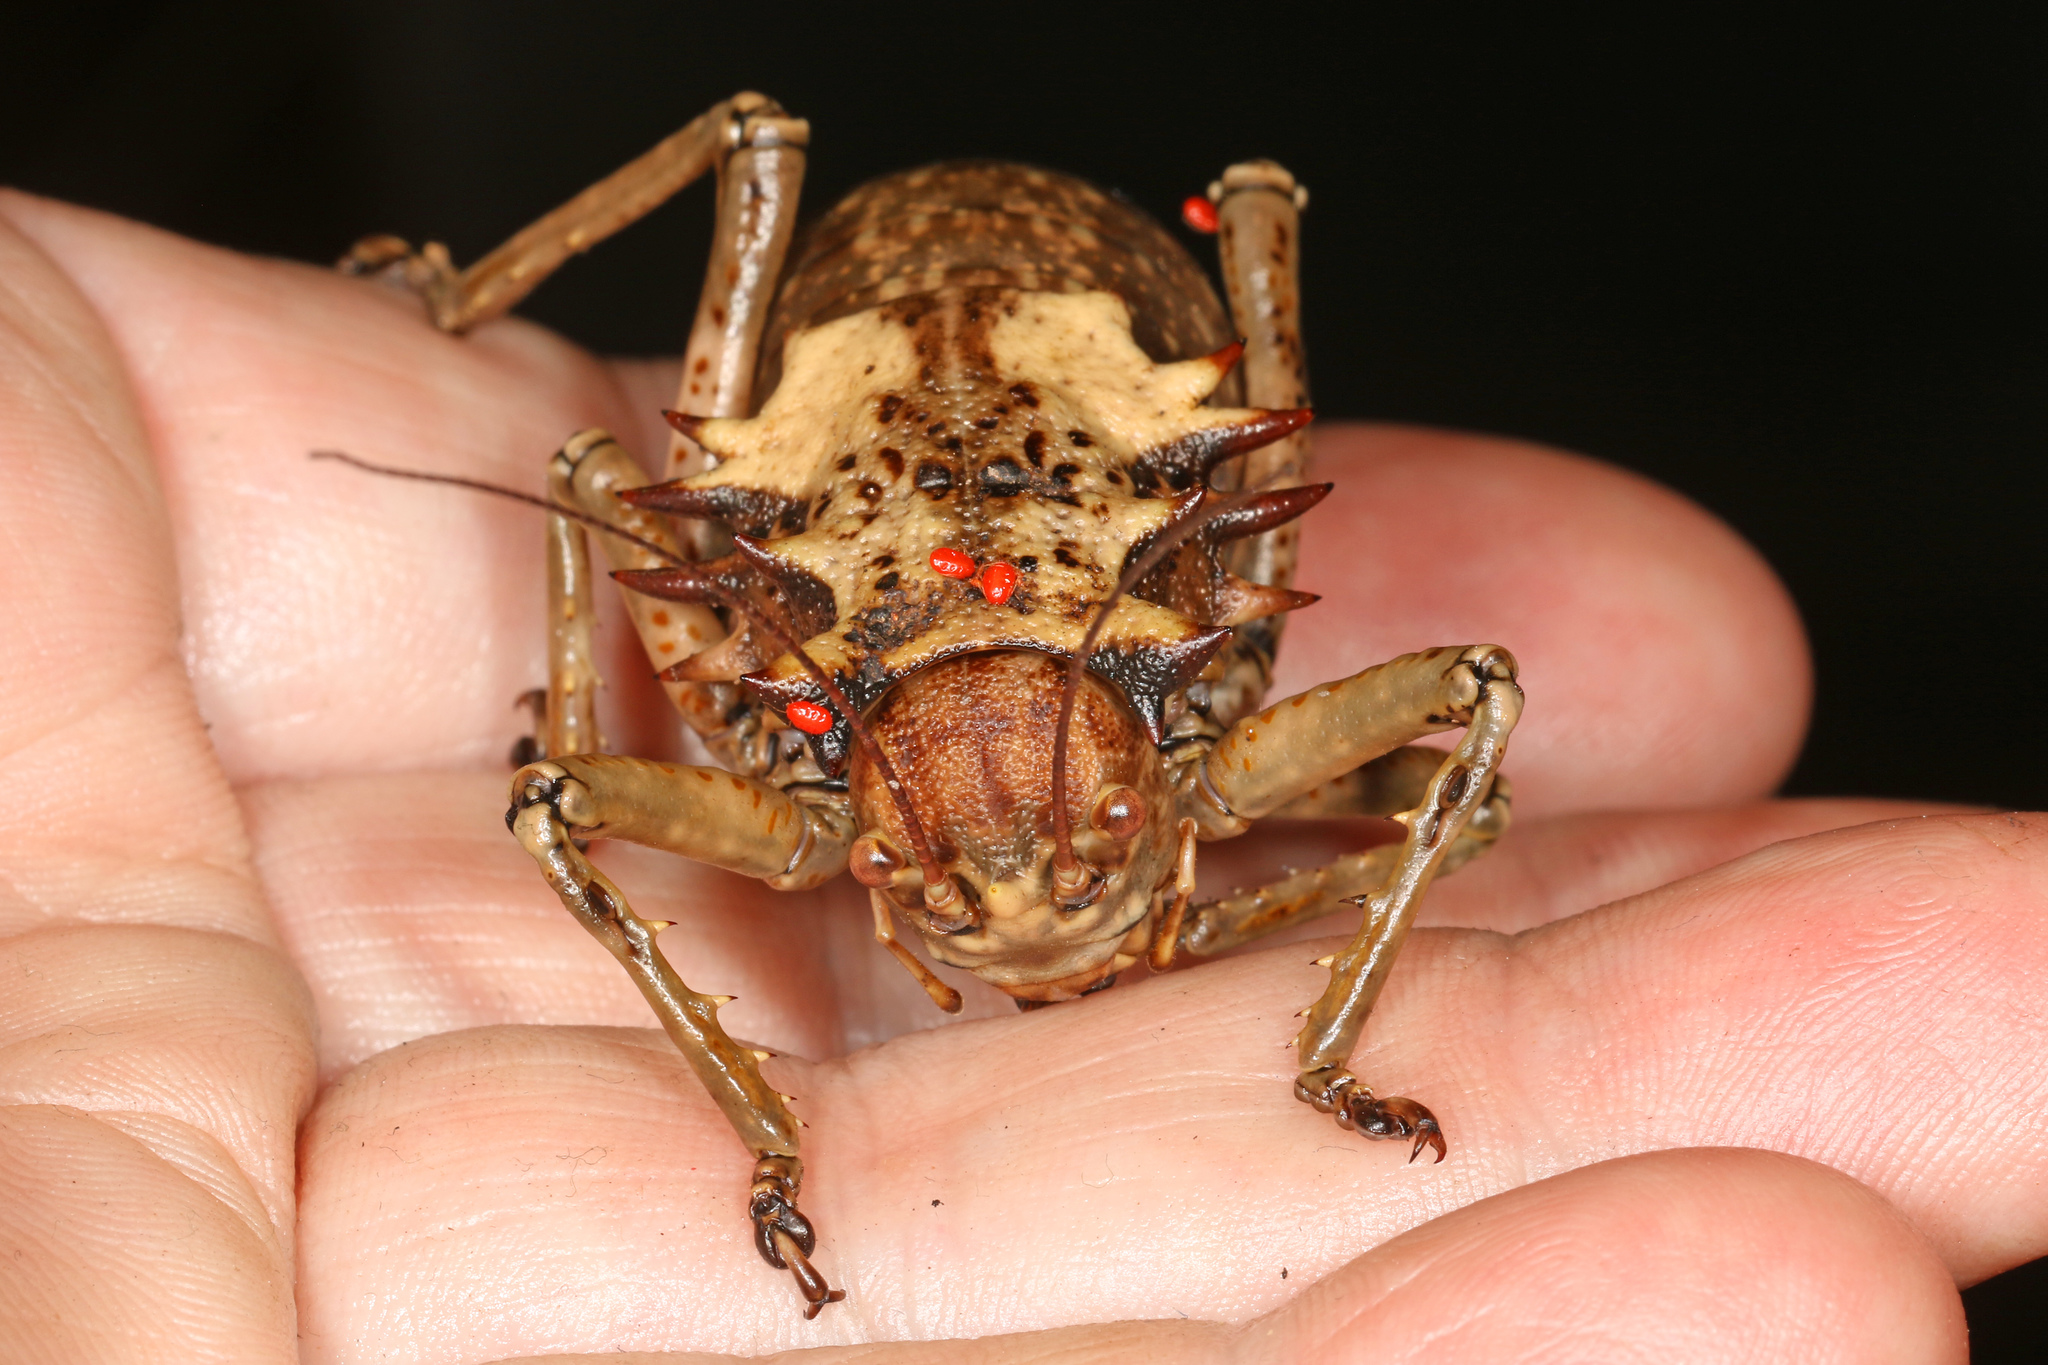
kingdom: Animalia
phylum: Arthropoda
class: Insecta
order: Orthoptera
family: Tettigoniidae
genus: Enyaliopsis
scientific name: Enyaliopsis iaculator
